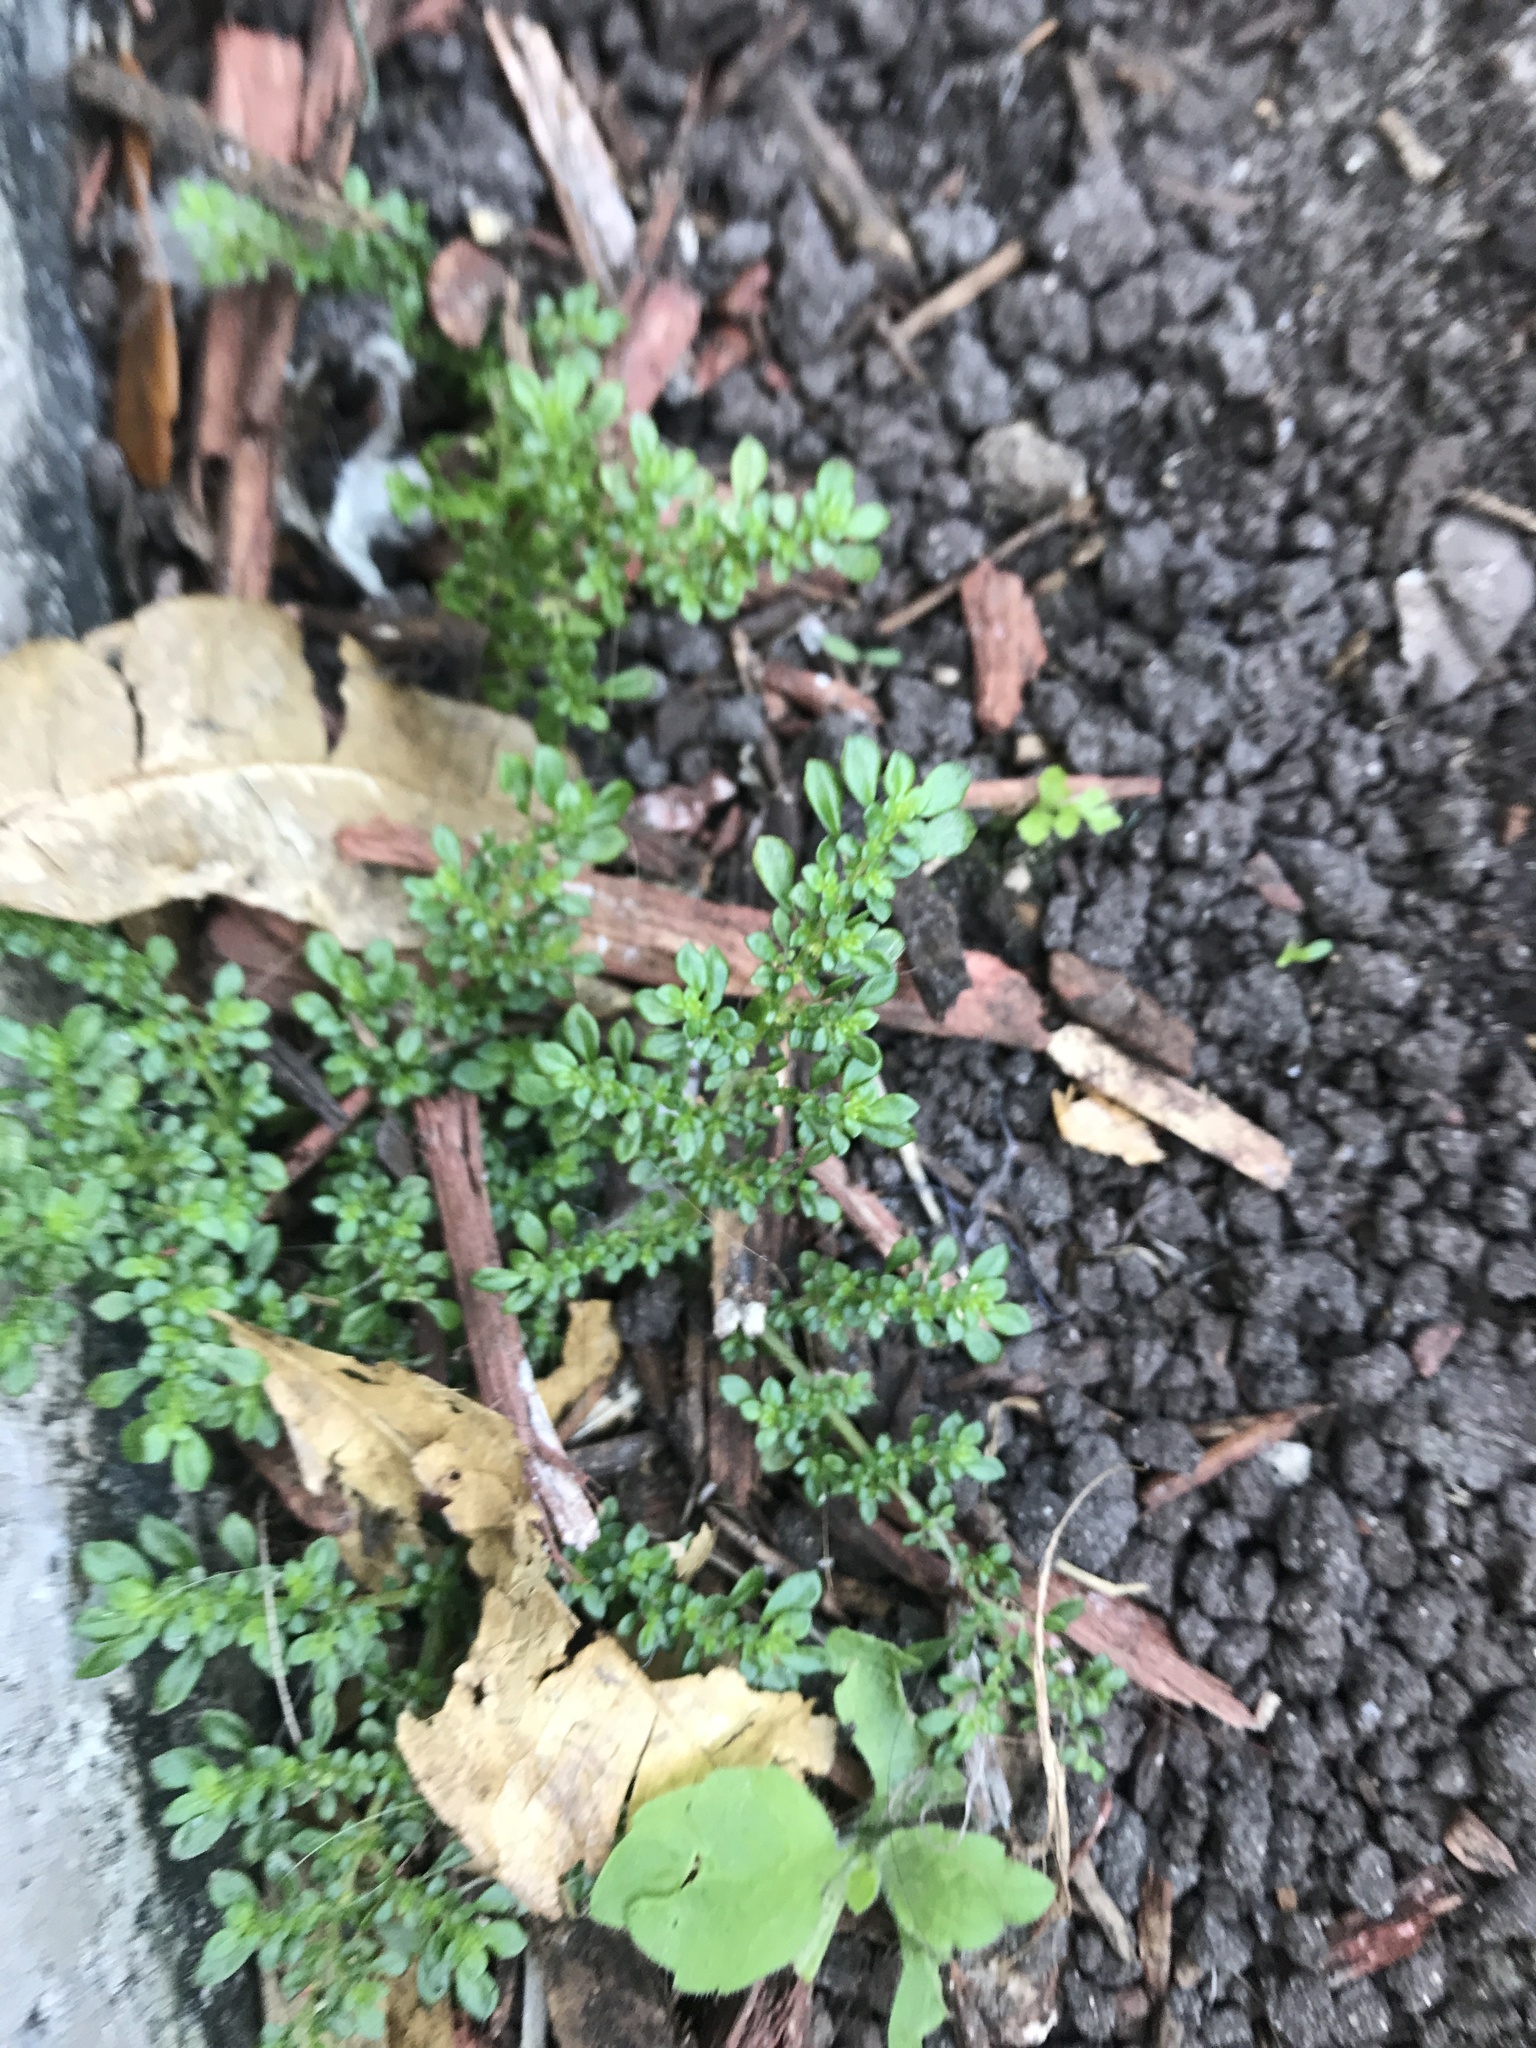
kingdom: Plantae
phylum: Tracheophyta
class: Magnoliopsida
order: Rosales
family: Urticaceae
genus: Pilea
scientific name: Pilea microphylla
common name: Artillery-plant
